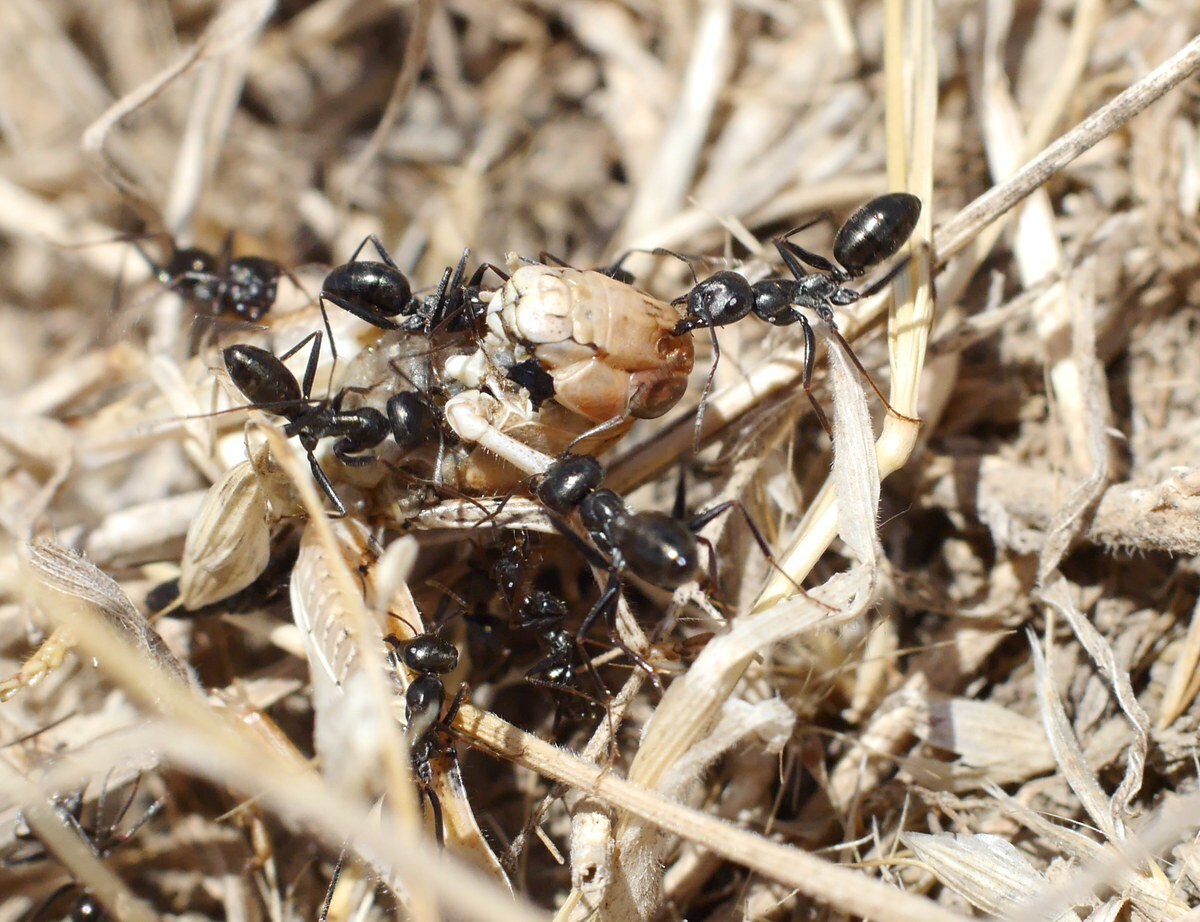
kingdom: Animalia
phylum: Arthropoda
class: Insecta
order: Hymenoptera
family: Formicidae
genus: Cataglyphis
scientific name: Cataglyphis aenescens
